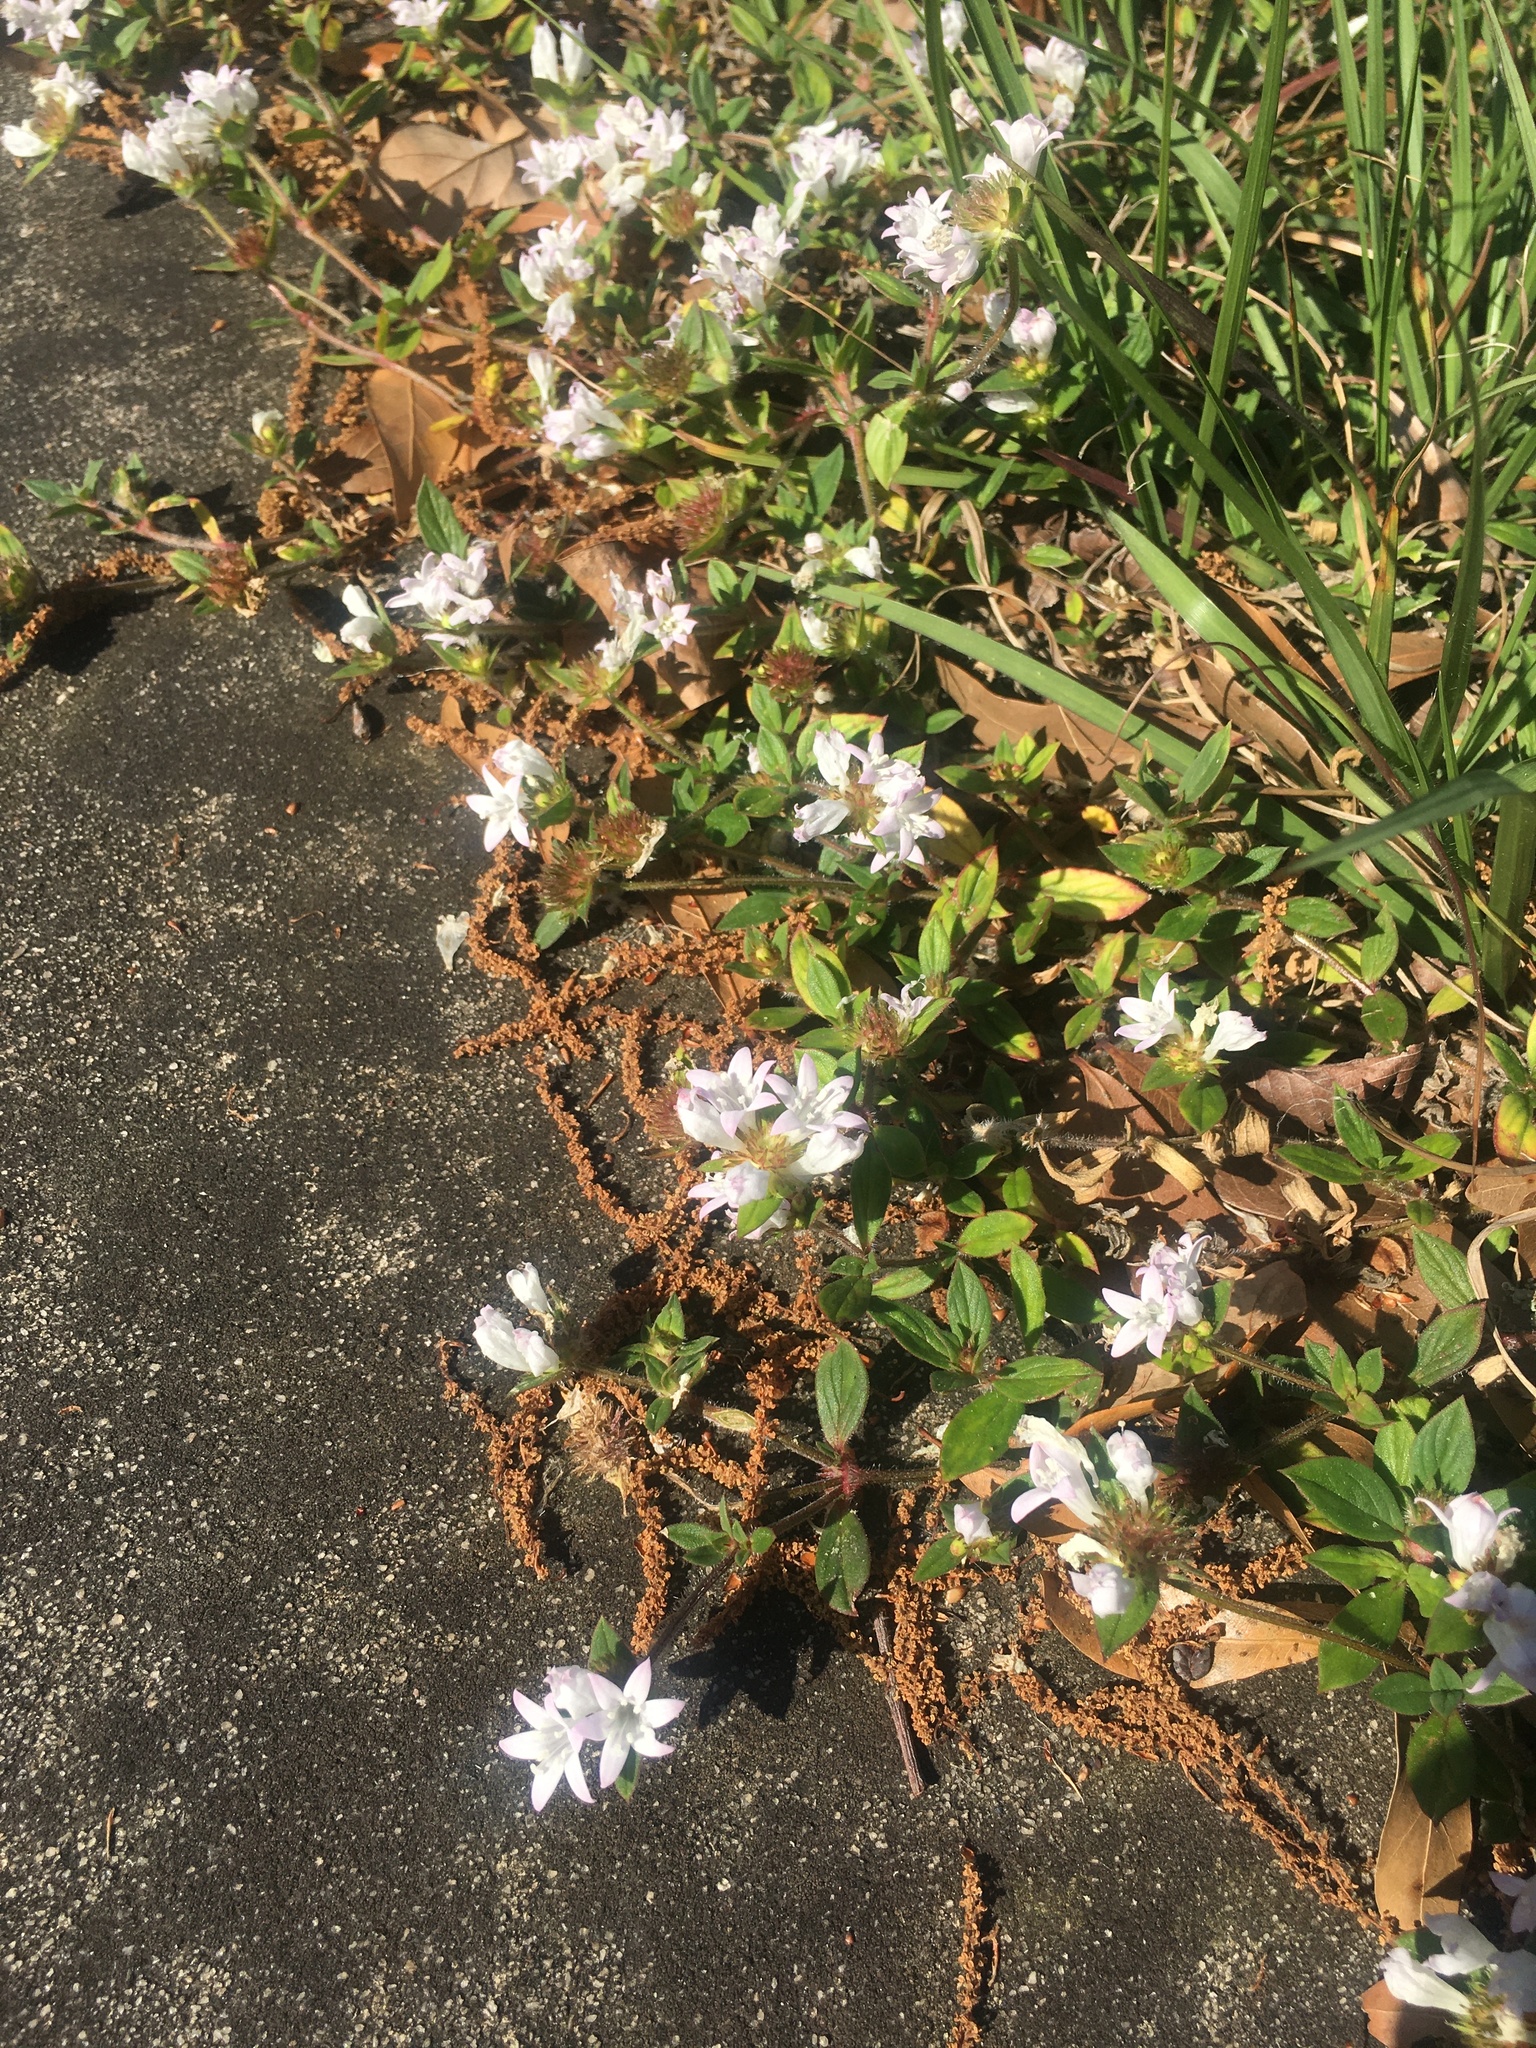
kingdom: Plantae
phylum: Tracheophyta
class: Magnoliopsida
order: Gentianales
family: Rubiaceae
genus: Richardia
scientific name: Richardia grandiflora
